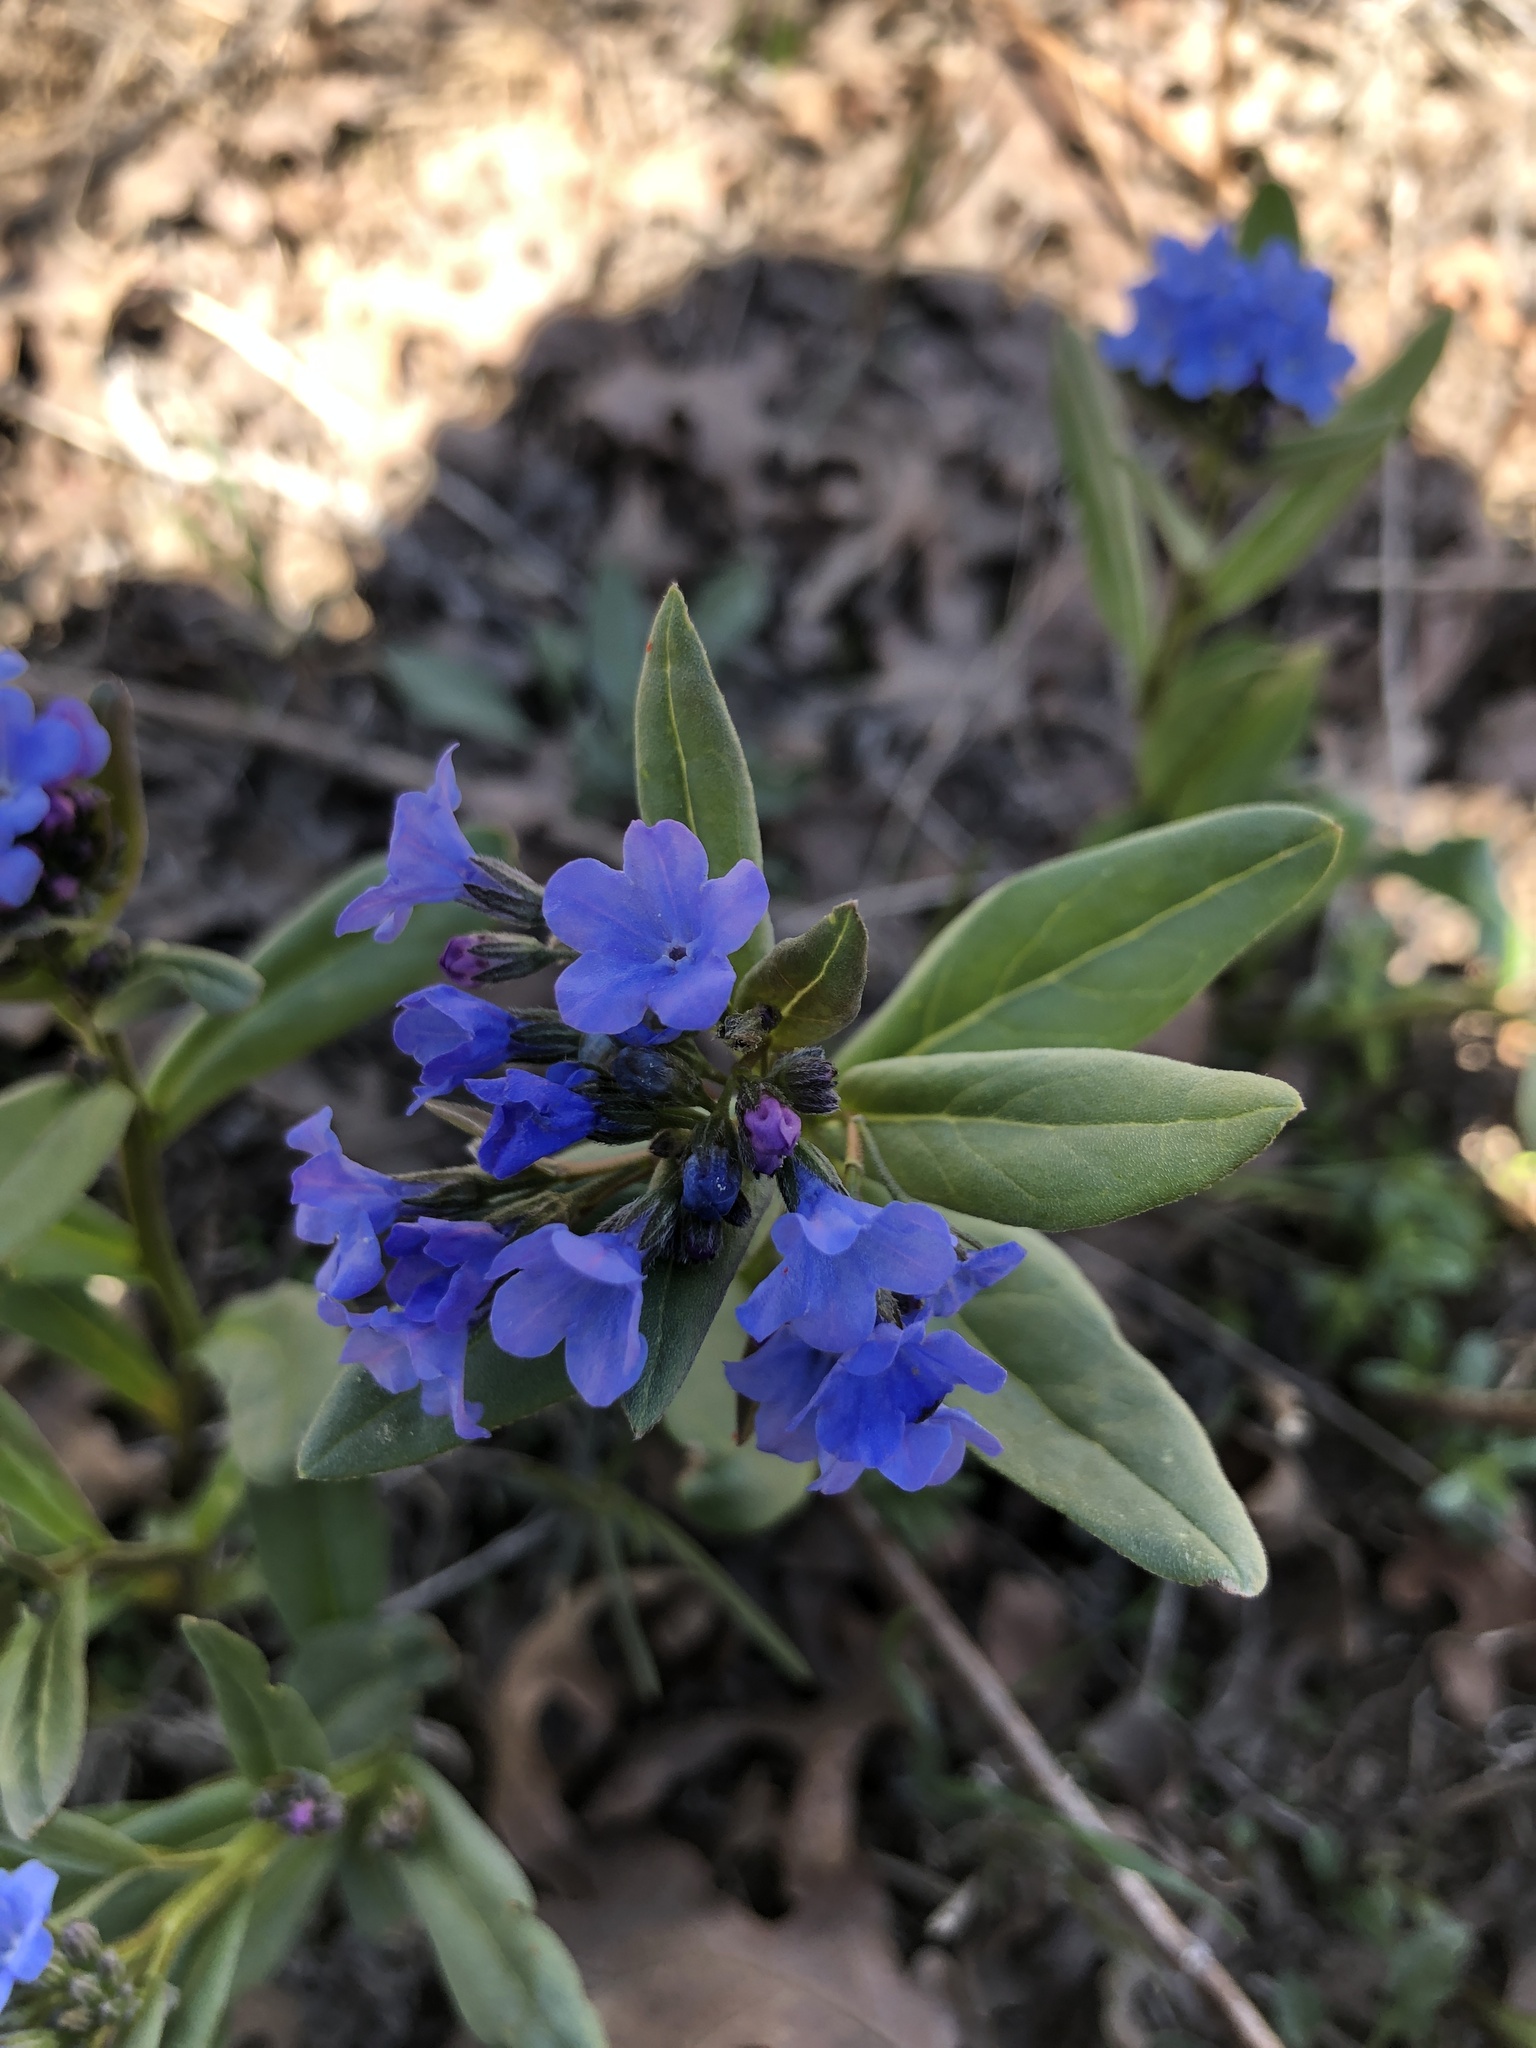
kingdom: Plantae
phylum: Tracheophyta
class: Magnoliopsida
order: Boraginales
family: Boraginaceae
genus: Mertensia
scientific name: Mertensia brevistyla
